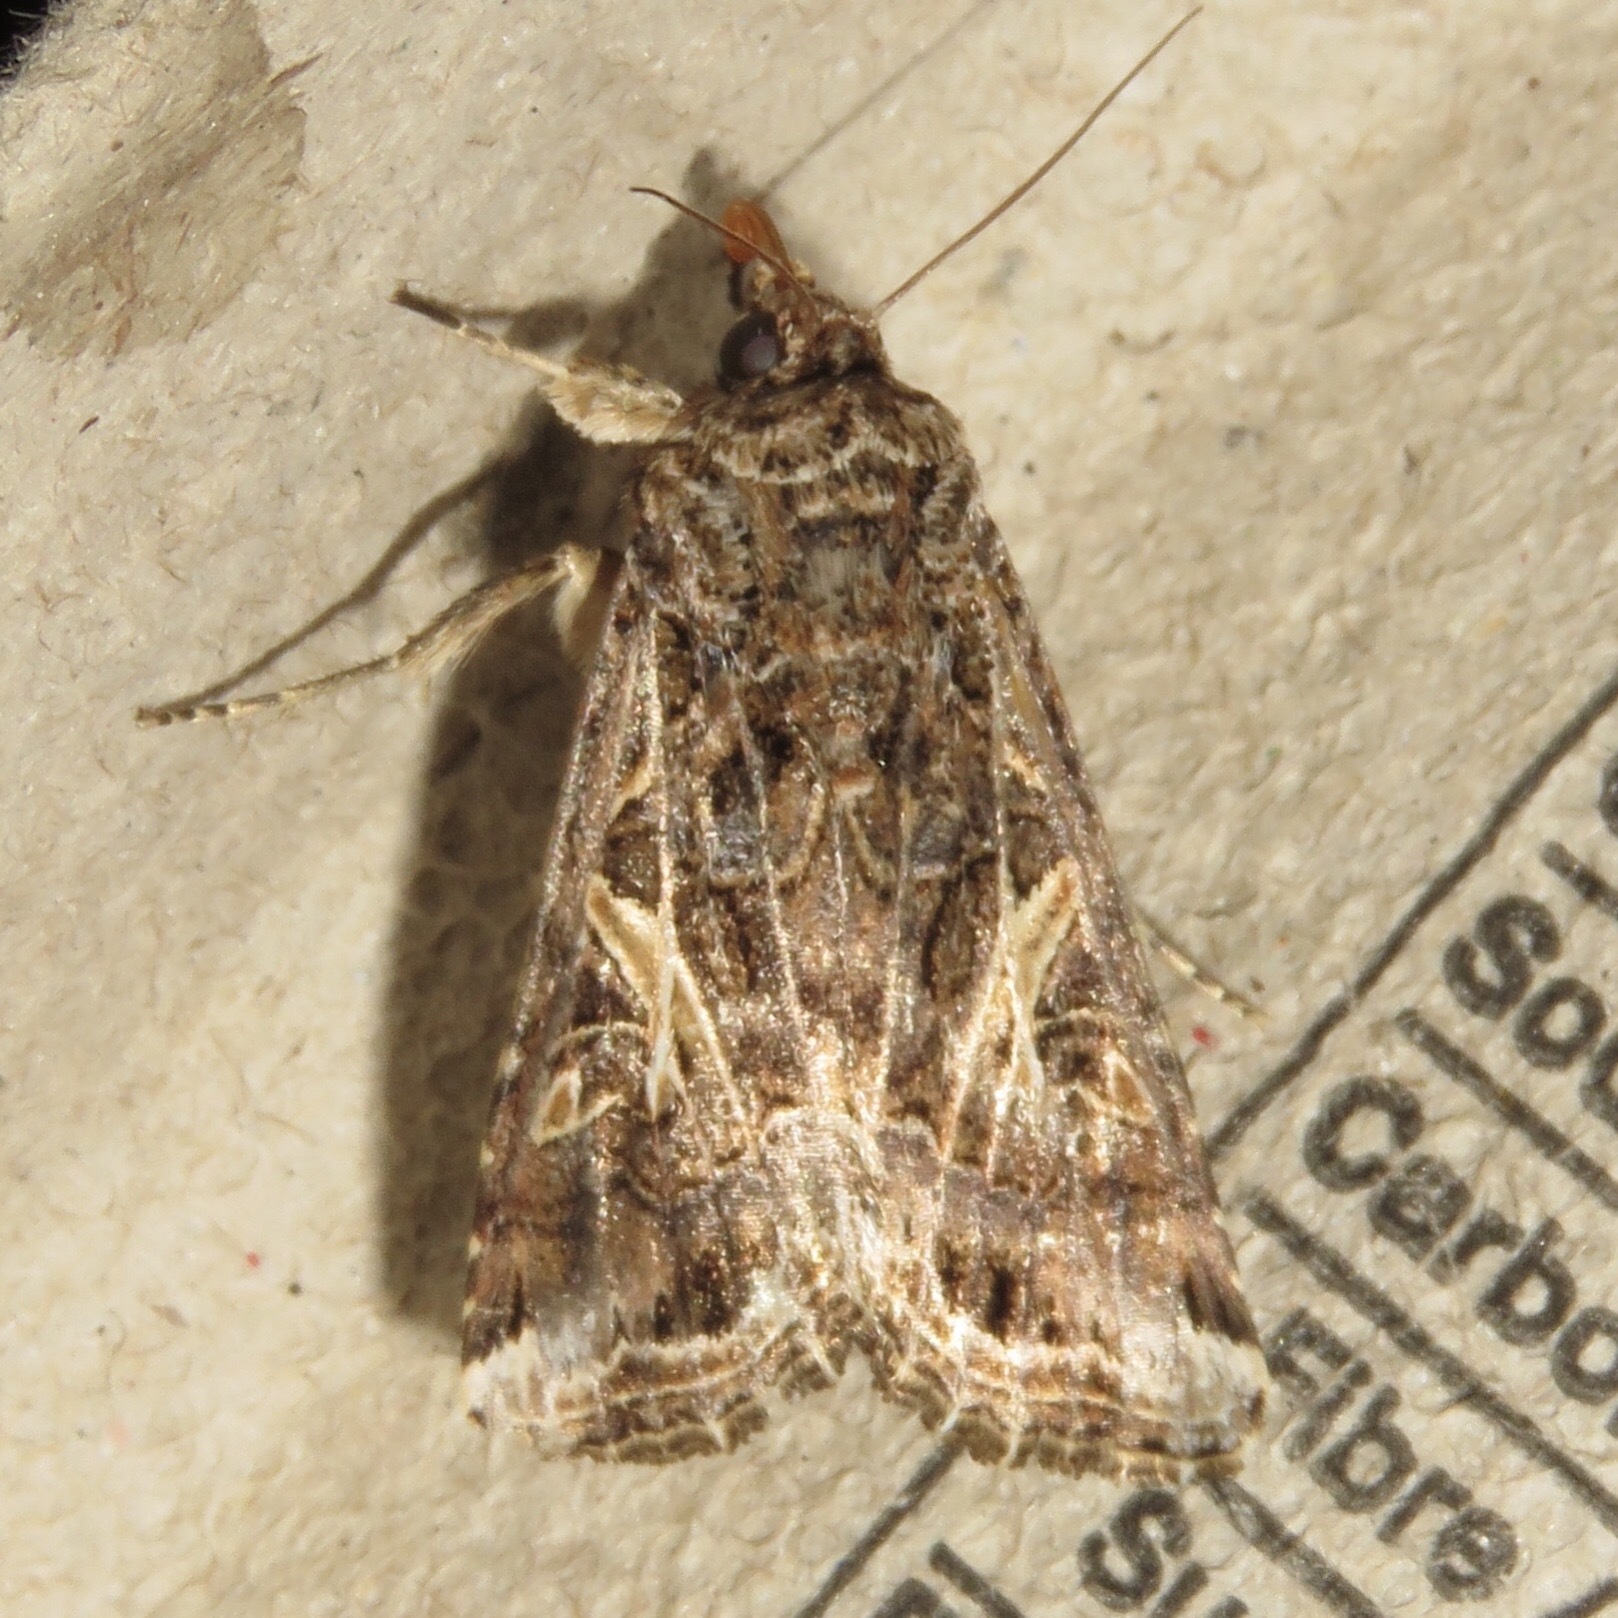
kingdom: Animalia
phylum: Arthropoda
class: Insecta
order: Lepidoptera
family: Noctuidae
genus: Spodoptera
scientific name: Spodoptera ornithogalli
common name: Yellow-striped armyworm
